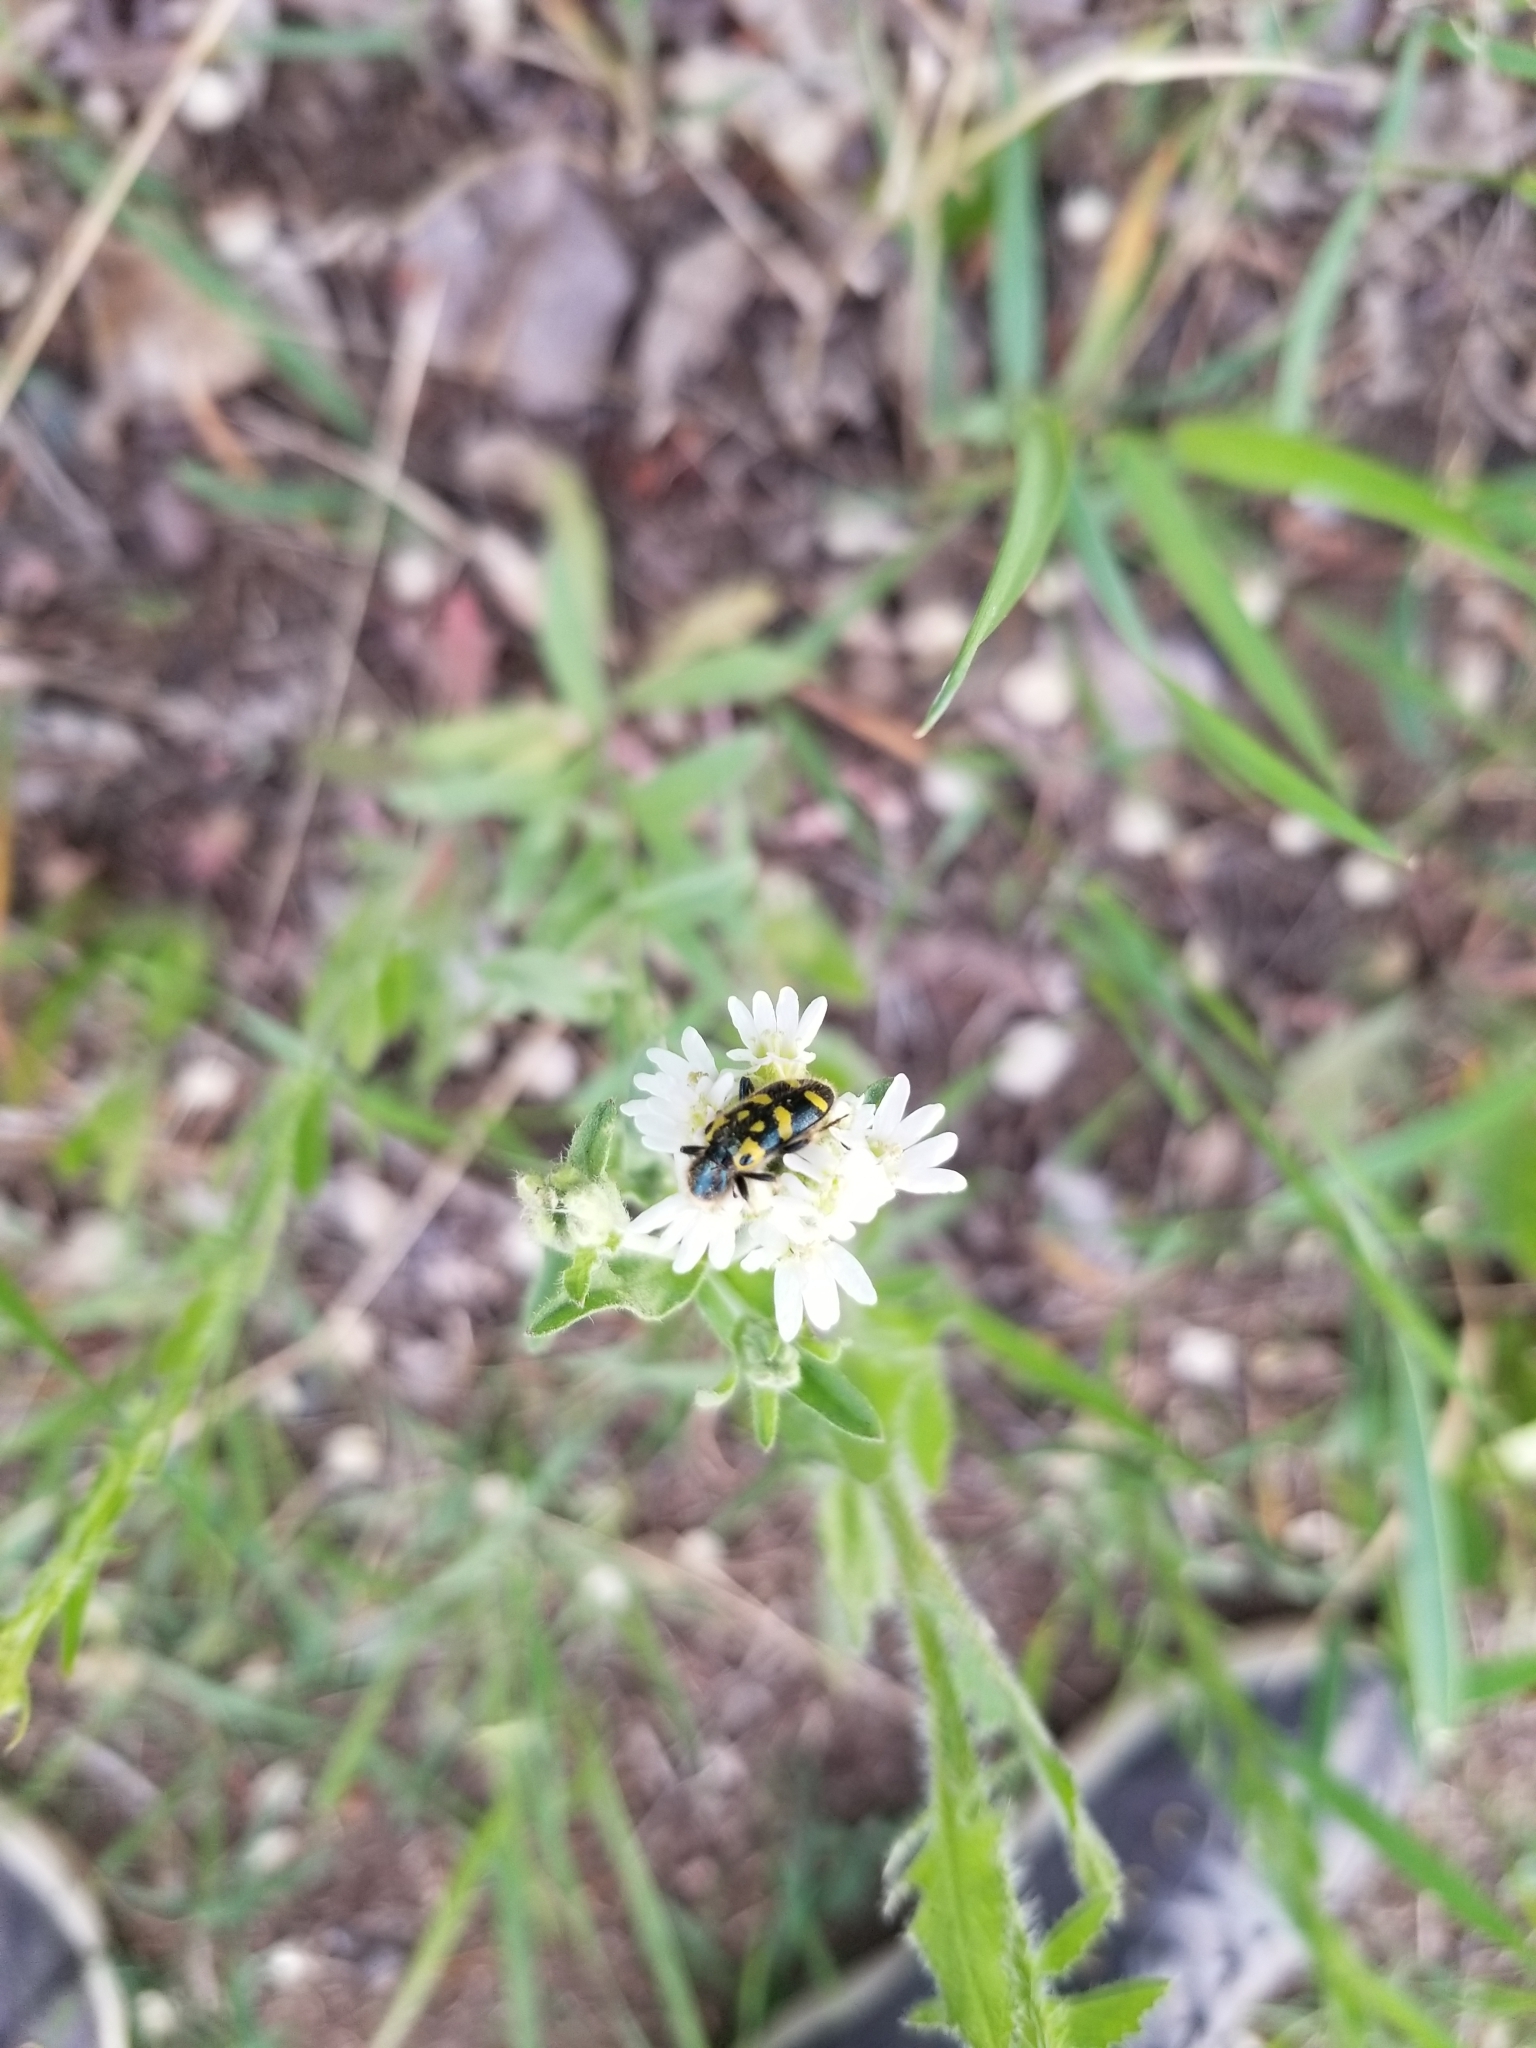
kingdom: Animalia
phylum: Arthropoda
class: Insecta
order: Coleoptera
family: Cleridae
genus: Trichodes
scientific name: Trichodes ornatus
